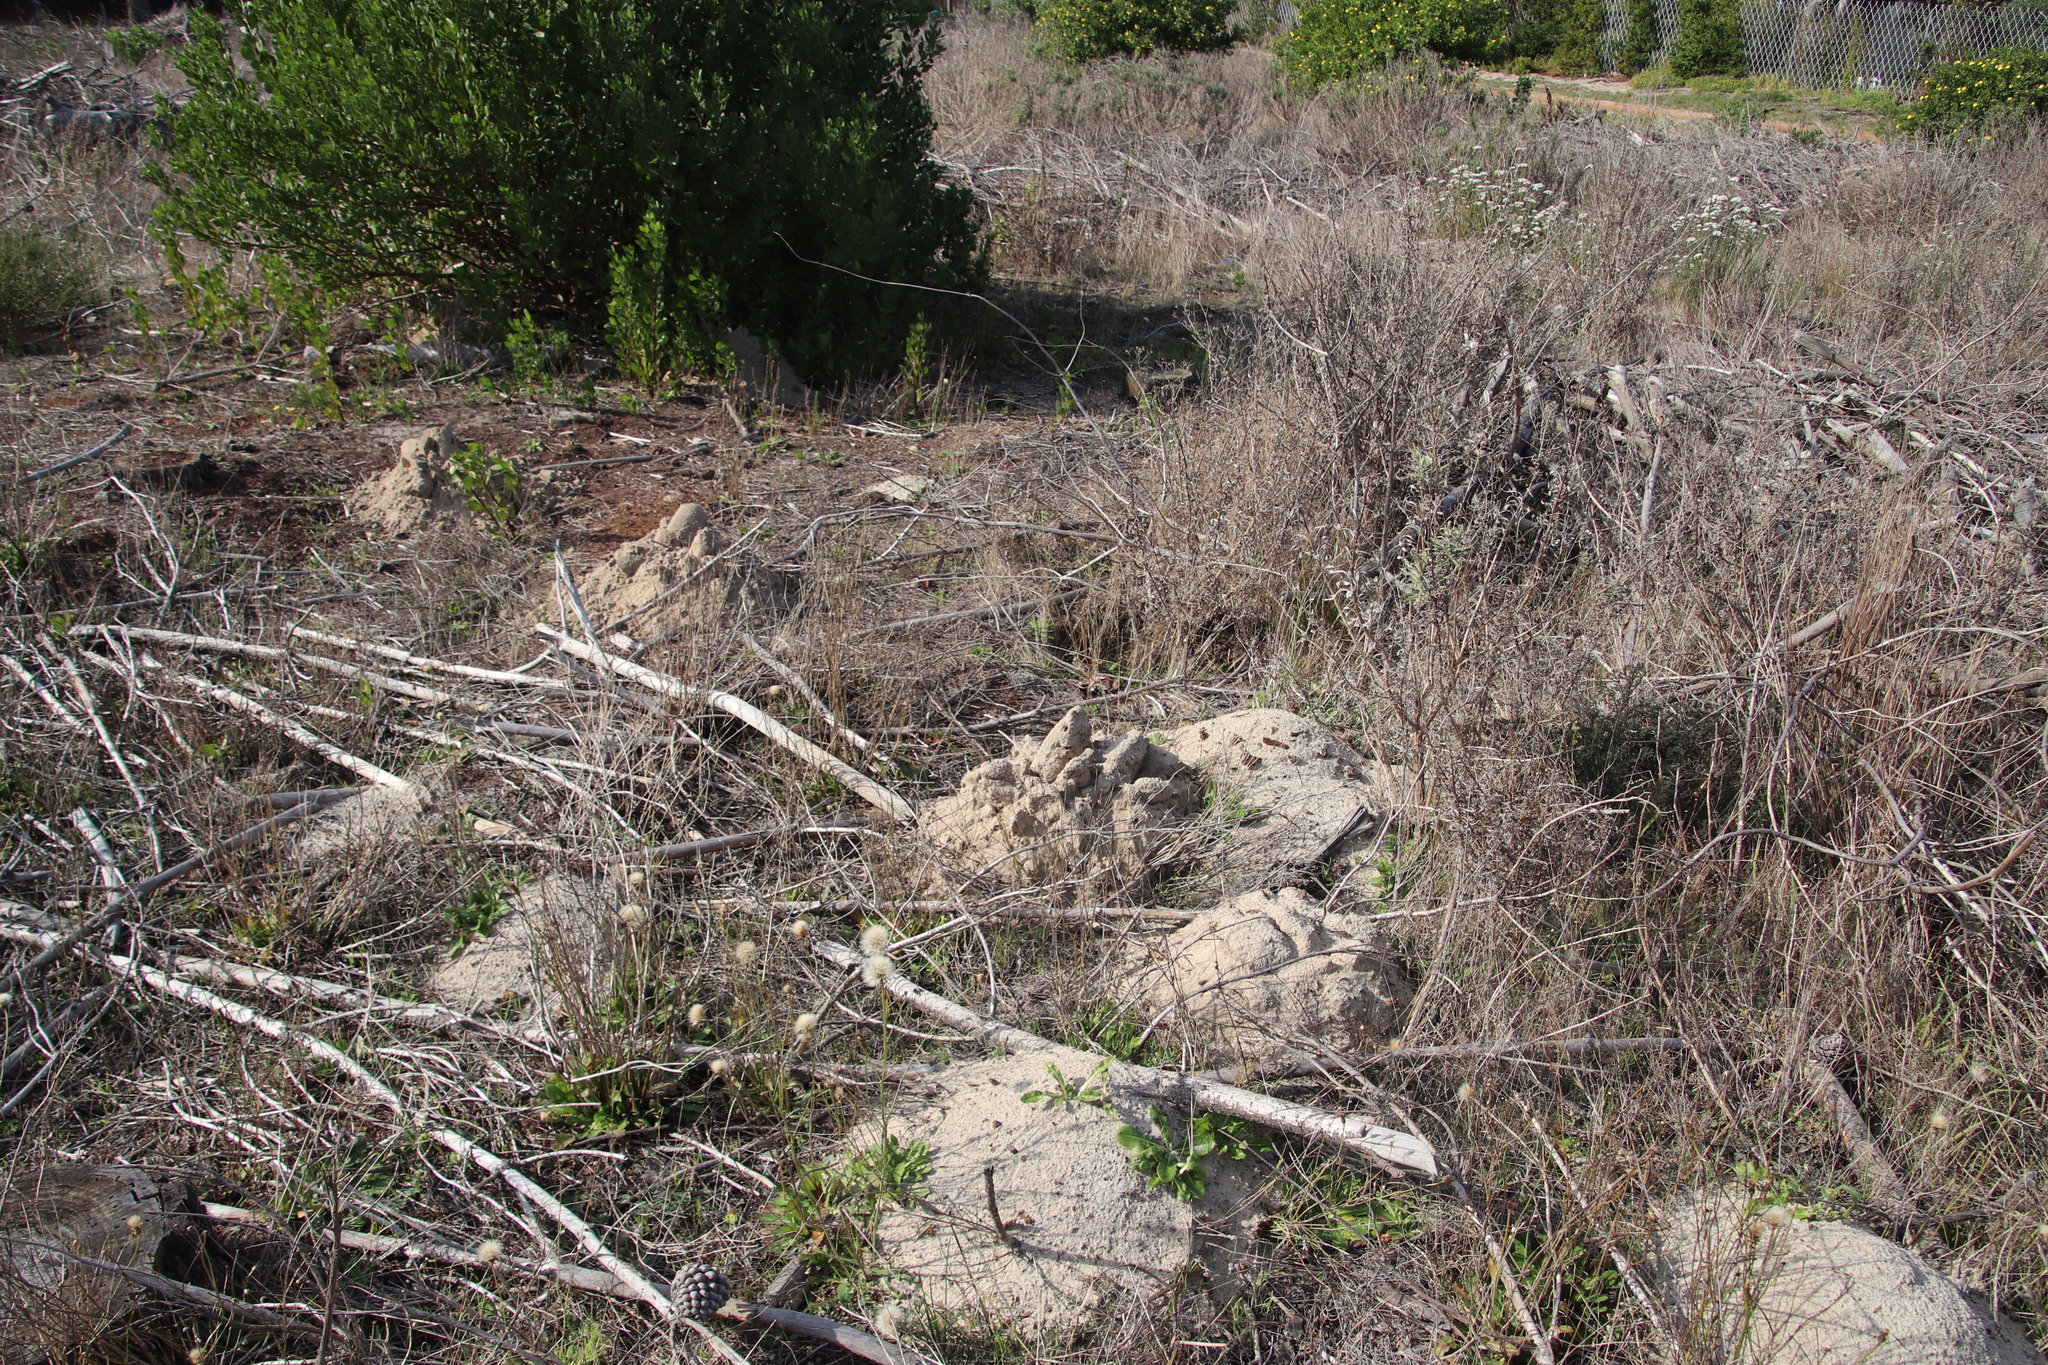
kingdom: Animalia
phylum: Chordata
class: Mammalia
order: Rodentia
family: Bathyergidae
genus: Bathyergus
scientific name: Bathyergus suillus
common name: Cape dune mole rat
